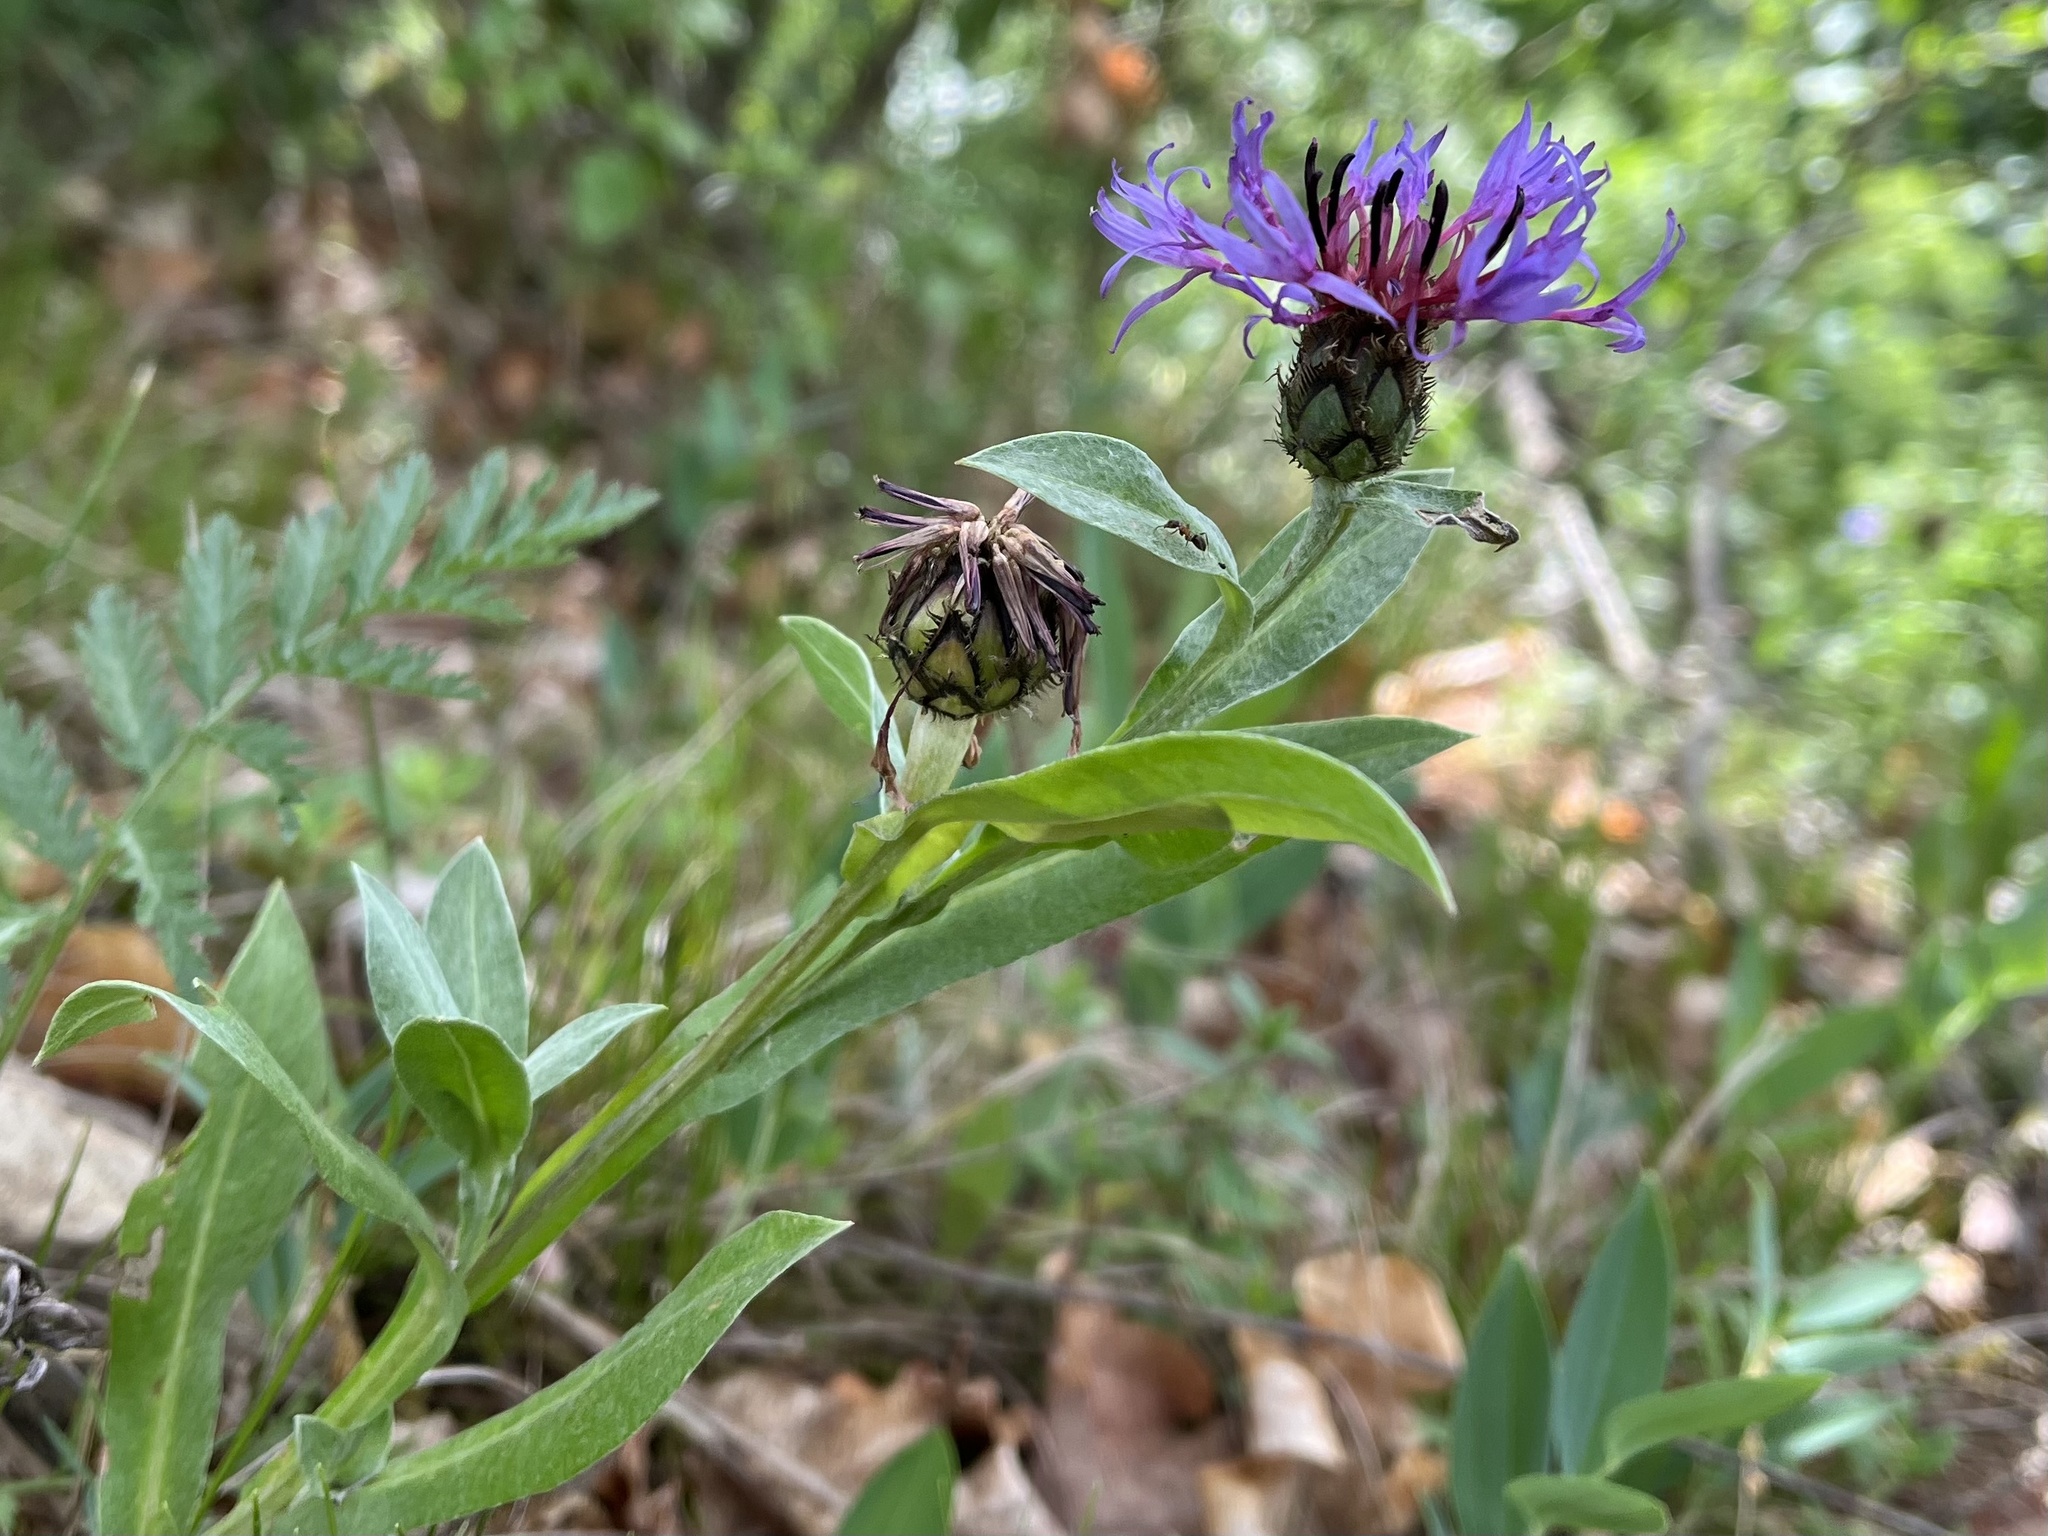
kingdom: Plantae
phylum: Tracheophyta
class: Magnoliopsida
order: Asterales
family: Asteraceae
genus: Centaurea
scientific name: Centaurea triumfettii
